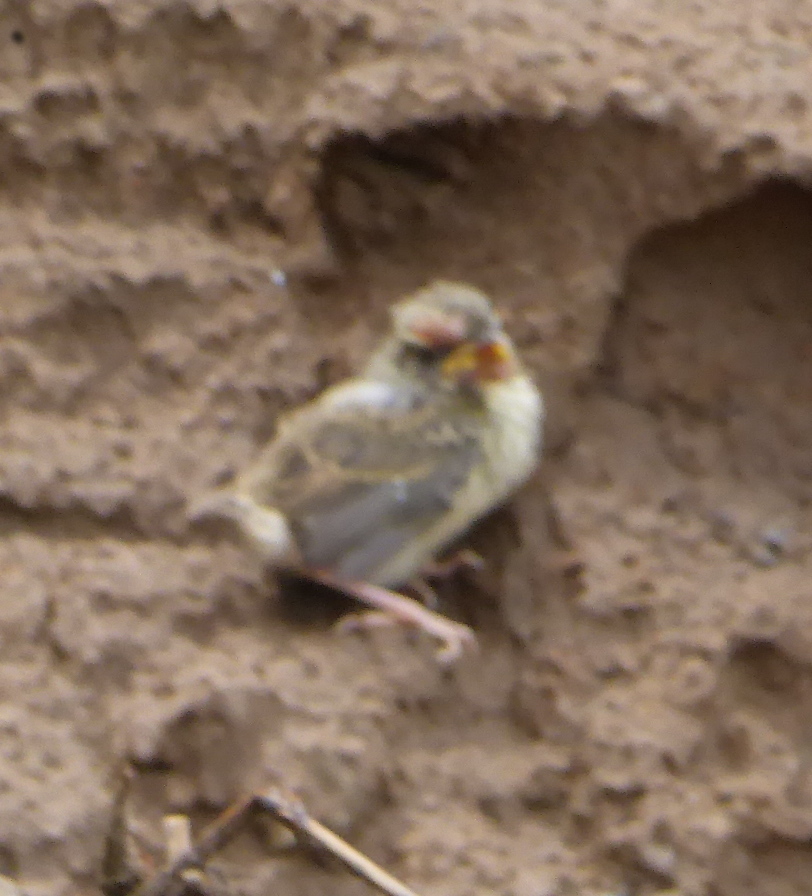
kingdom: Animalia
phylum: Chordata
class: Aves
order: Passeriformes
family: Passerellidae
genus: Ammodramus
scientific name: Ammodramus aurifrons
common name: Yellow-browed sparrow
